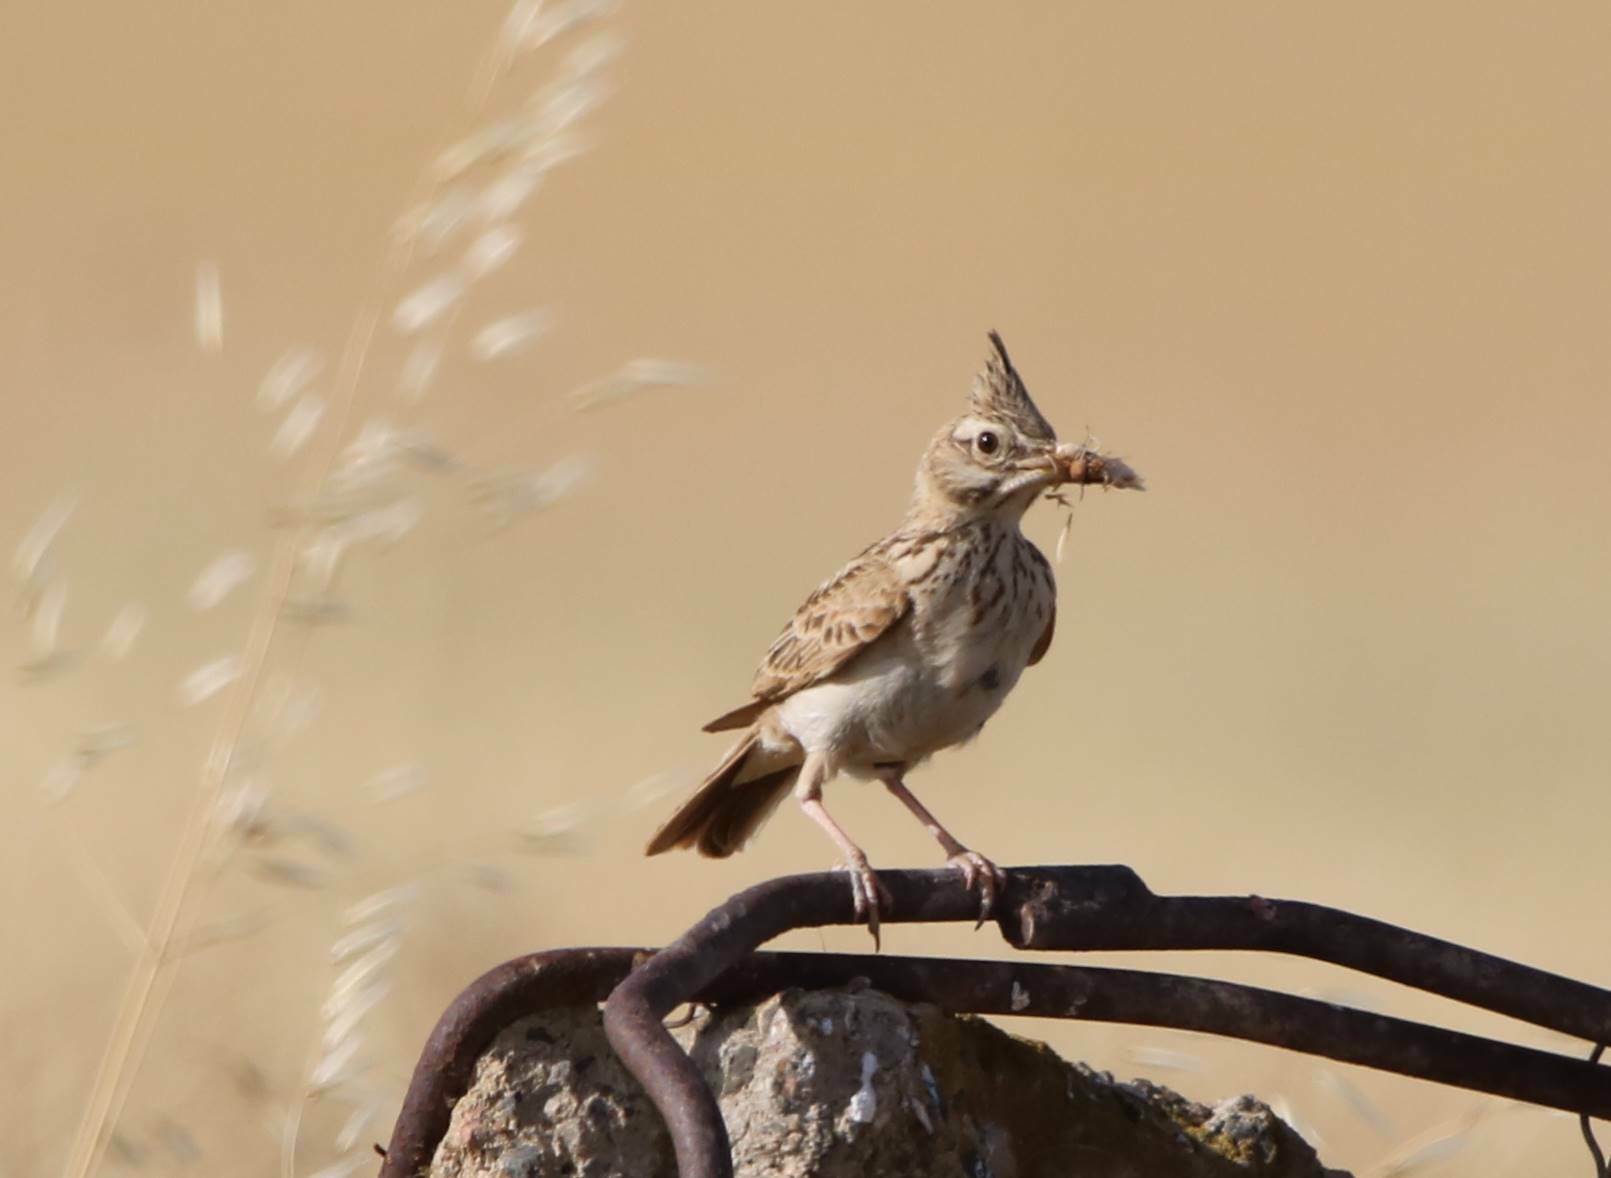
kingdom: Animalia
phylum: Chordata
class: Aves
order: Passeriformes
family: Alaudidae
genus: Galerida
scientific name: Galerida cristata
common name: Crested lark
